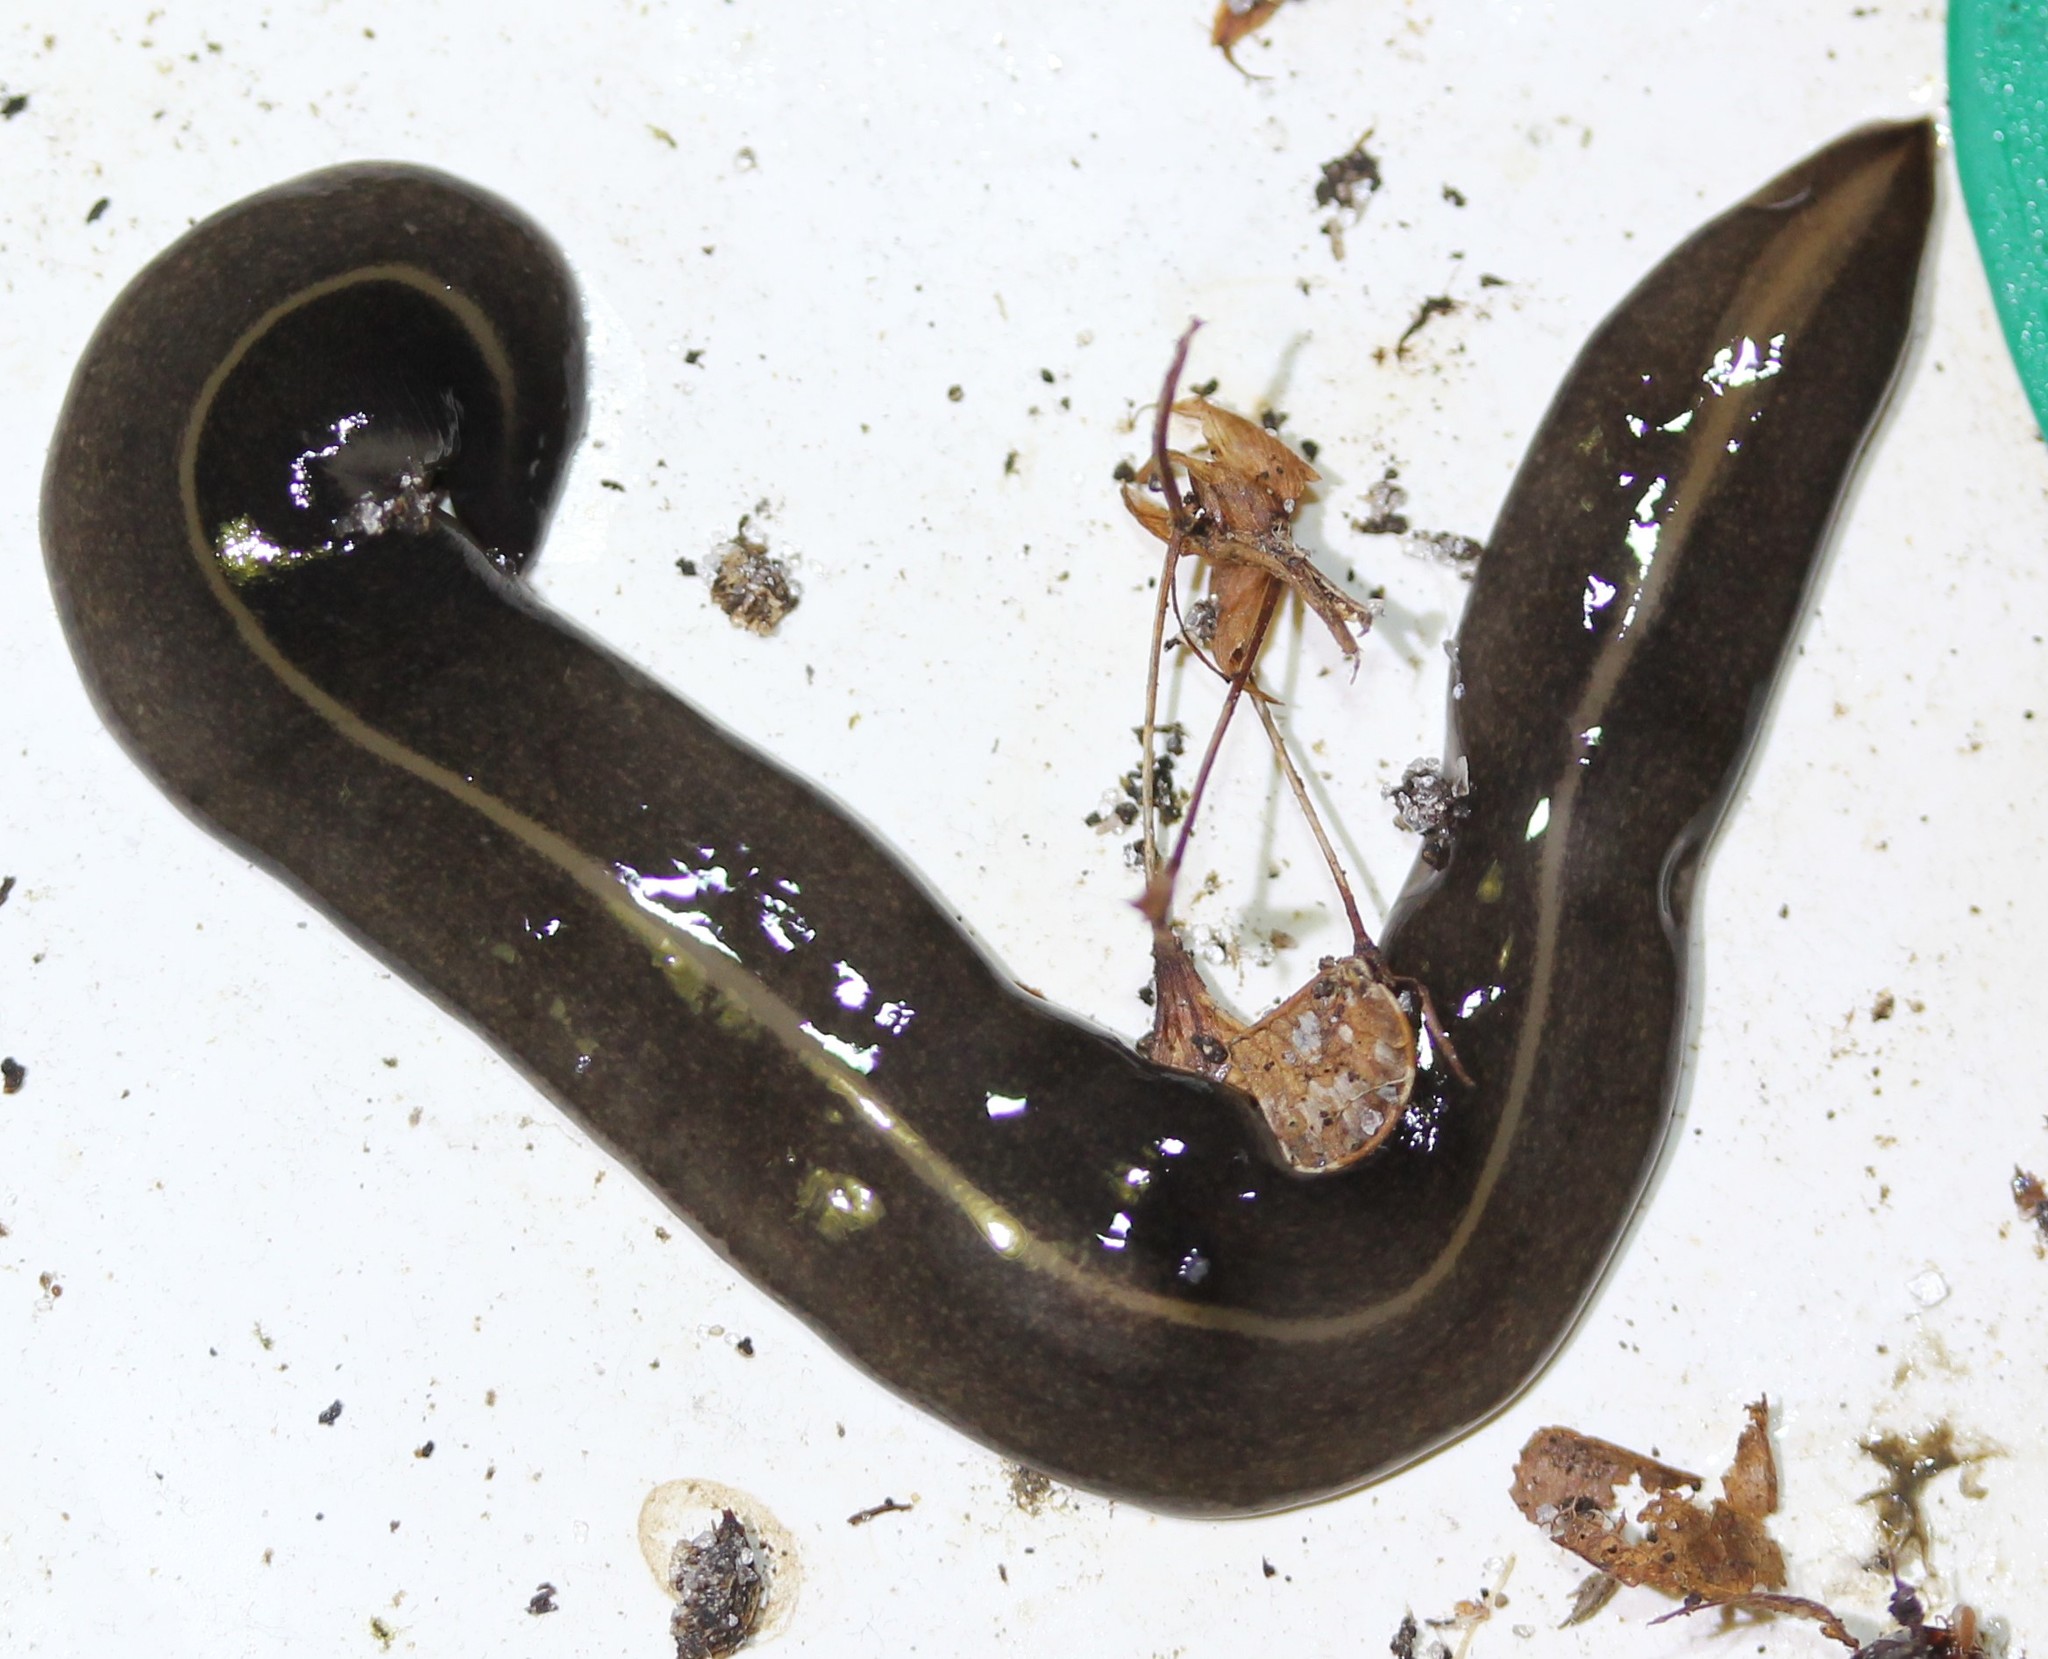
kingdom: Animalia
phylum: Platyhelminthes
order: Tricladida
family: Geoplanidae
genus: Platydemus
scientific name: Platydemus manokwari
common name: New guinea flatworm
